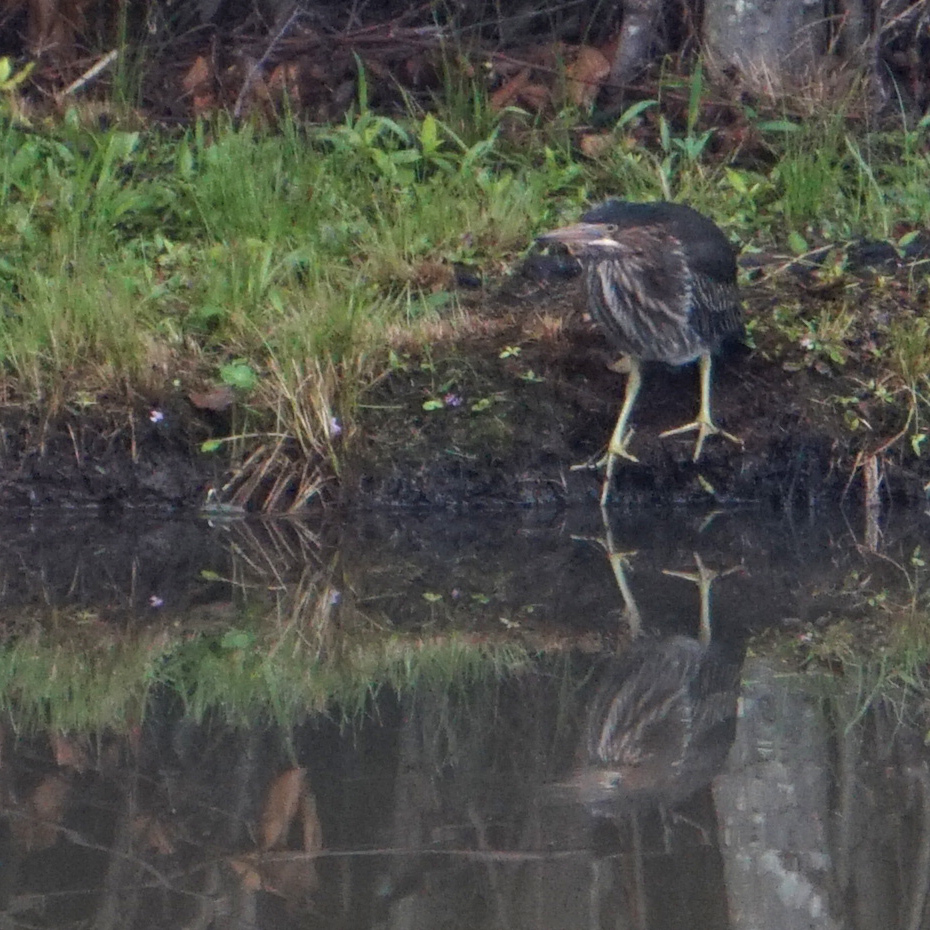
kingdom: Animalia
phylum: Chordata
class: Aves
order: Pelecaniformes
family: Ardeidae
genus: Butorides
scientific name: Butorides virescens
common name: Green heron
